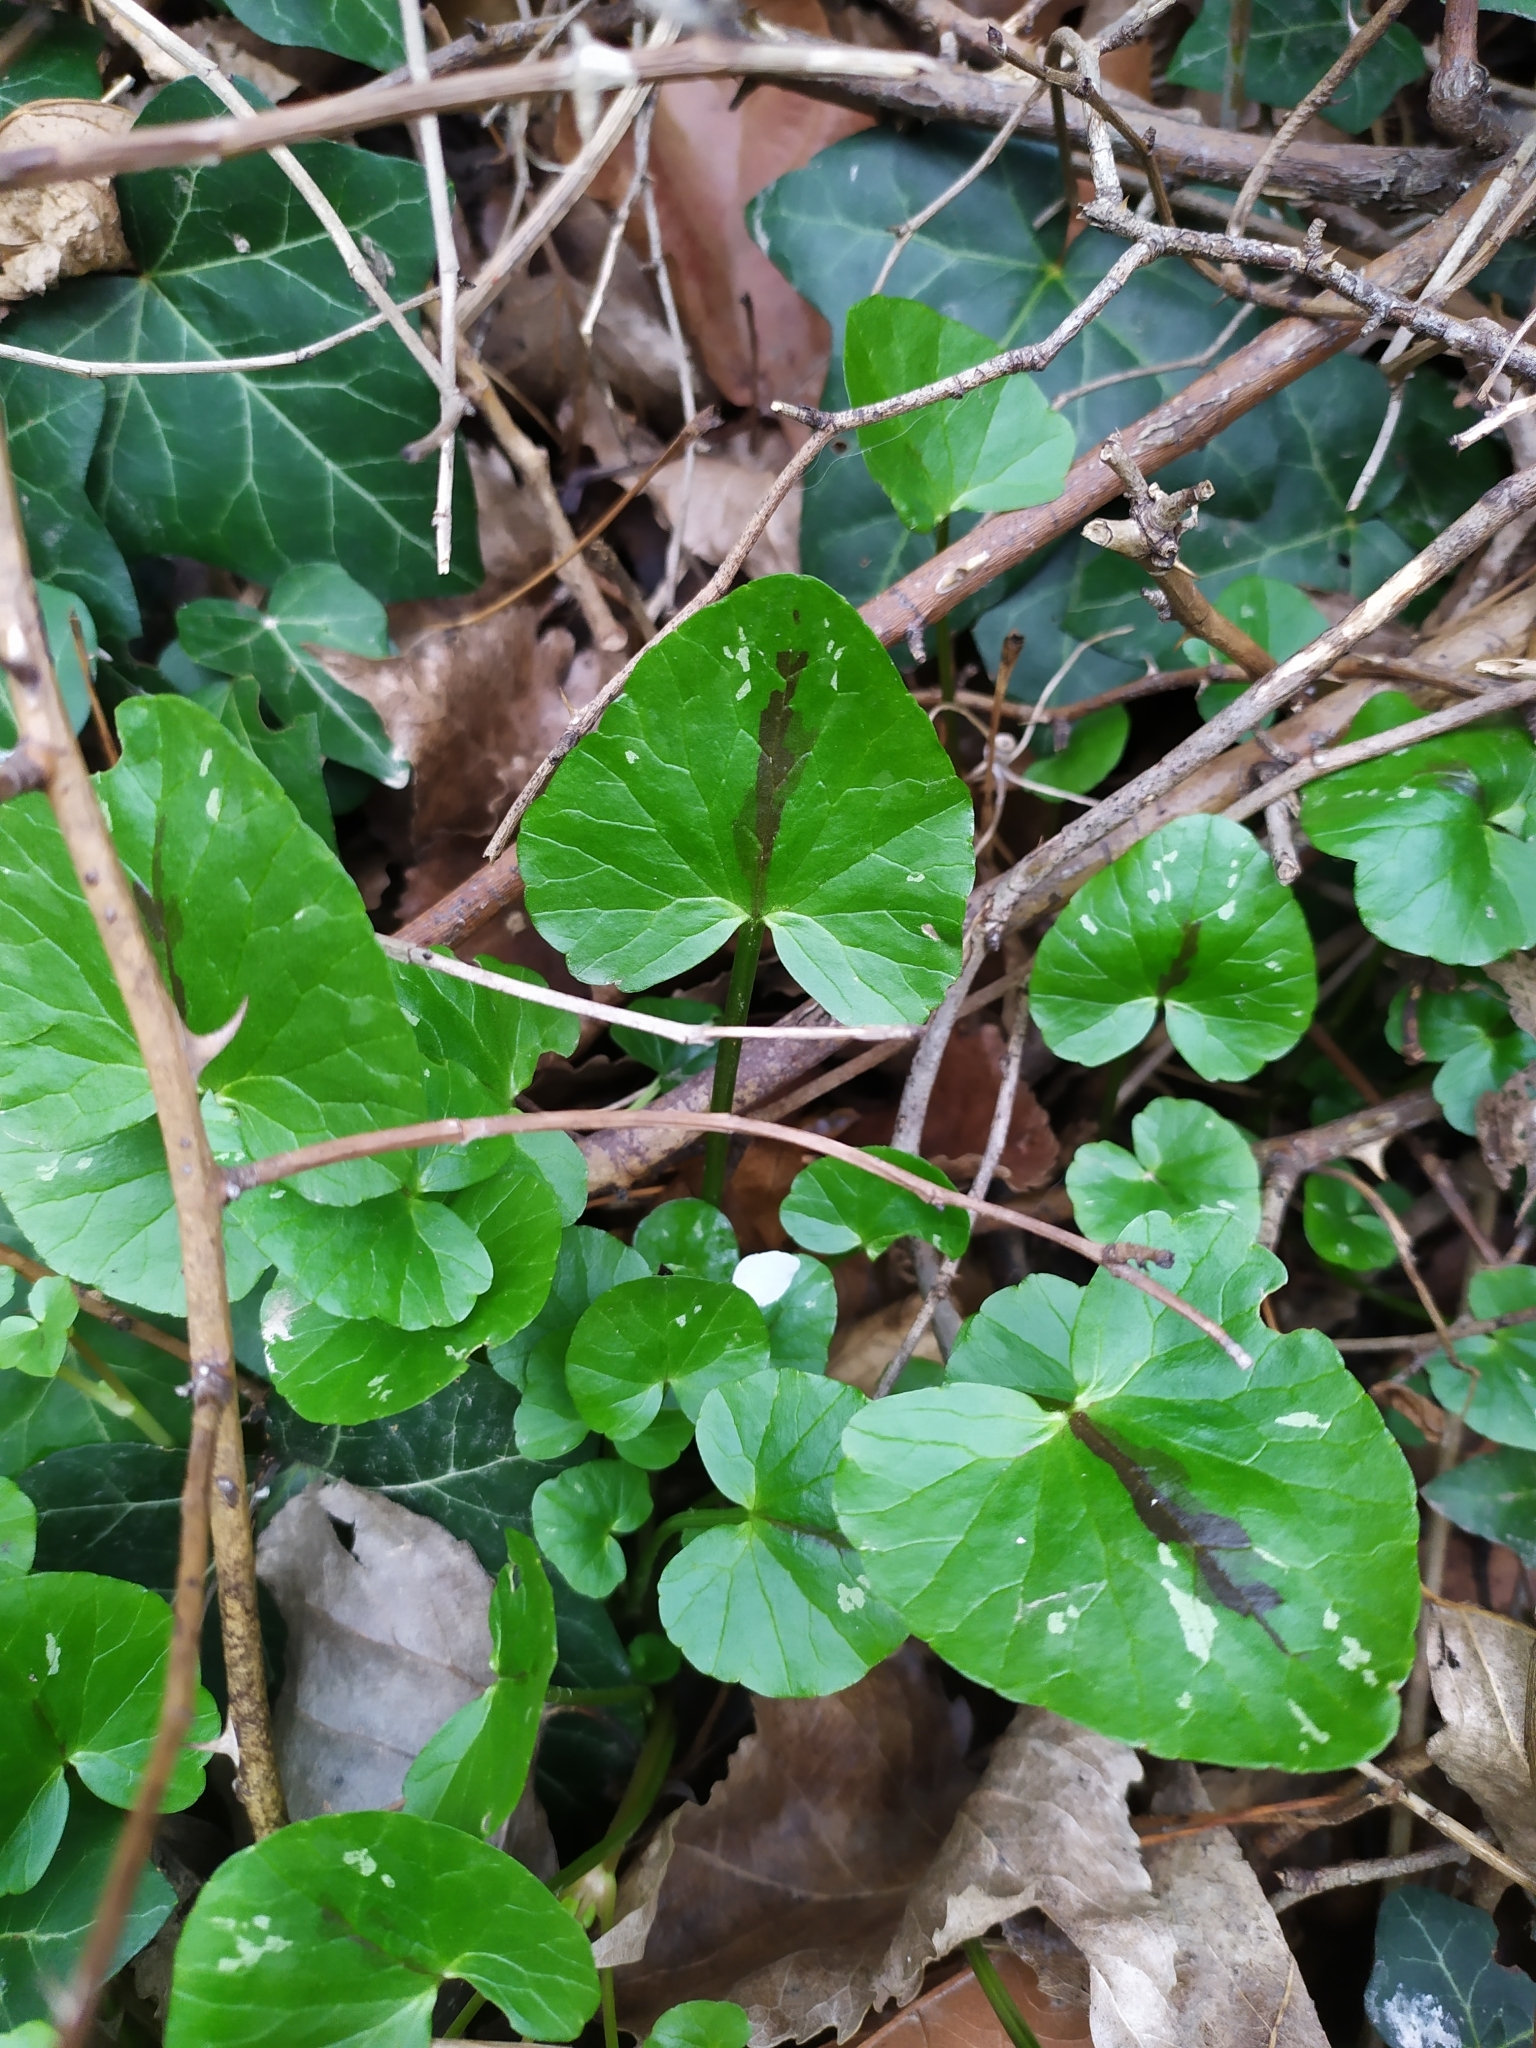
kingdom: Plantae
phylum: Tracheophyta
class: Magnoliopsida
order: Ranunculales
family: Ranunculaceae
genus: Ficaria
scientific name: Ficaria verna
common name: Lesser celandine
